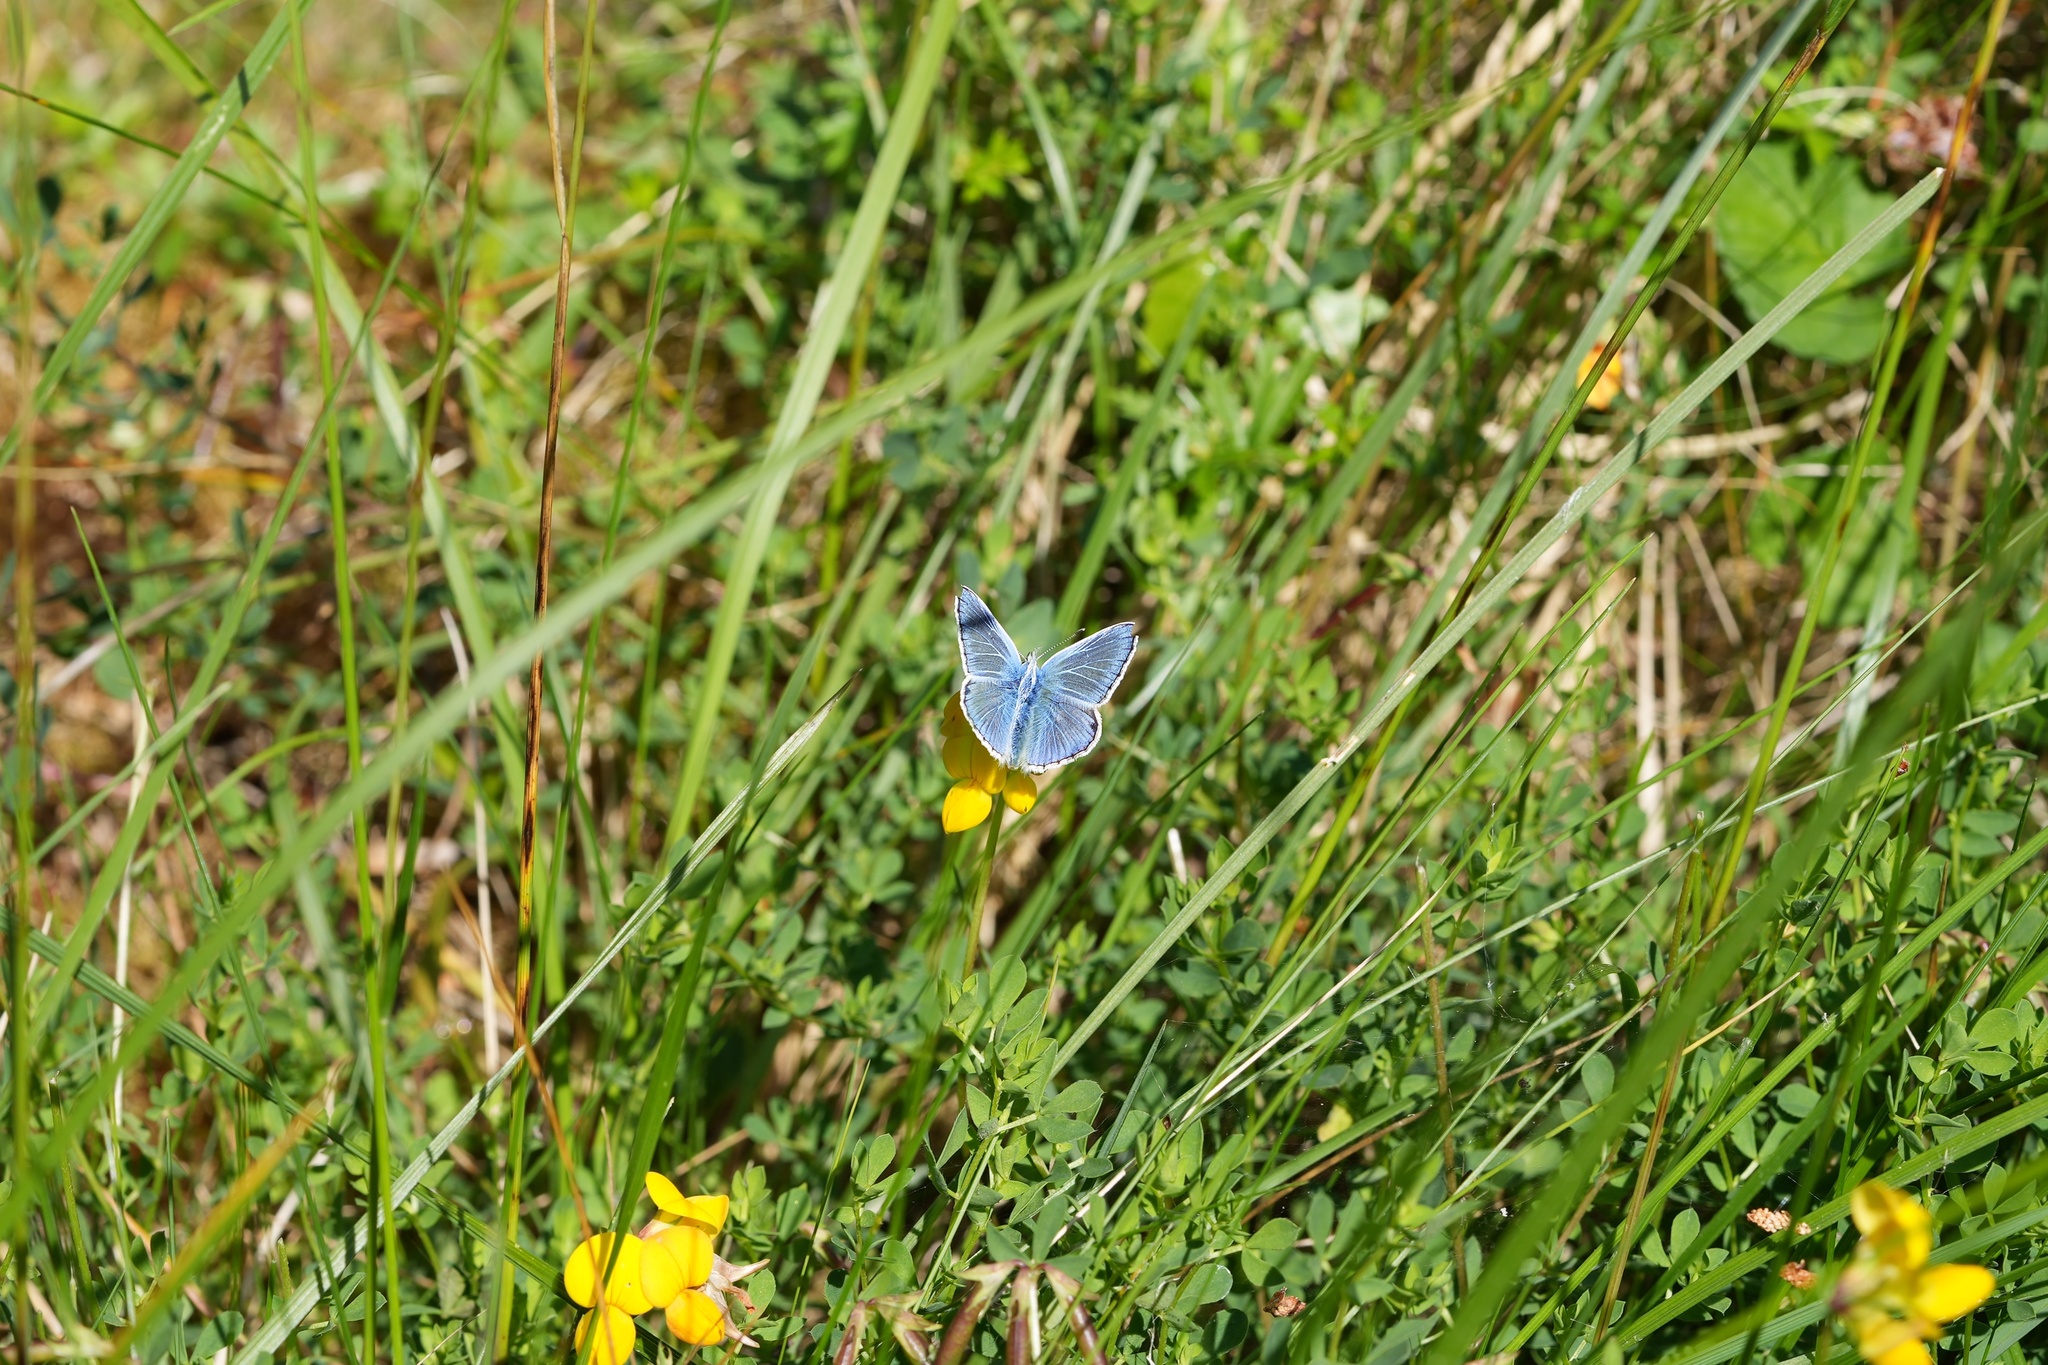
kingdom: Animalia
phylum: Arthropoda
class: Insecta
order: Lepidoptera
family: Lycaenidae
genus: Polyommatus
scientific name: Polyommatus icarus
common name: Common blue
